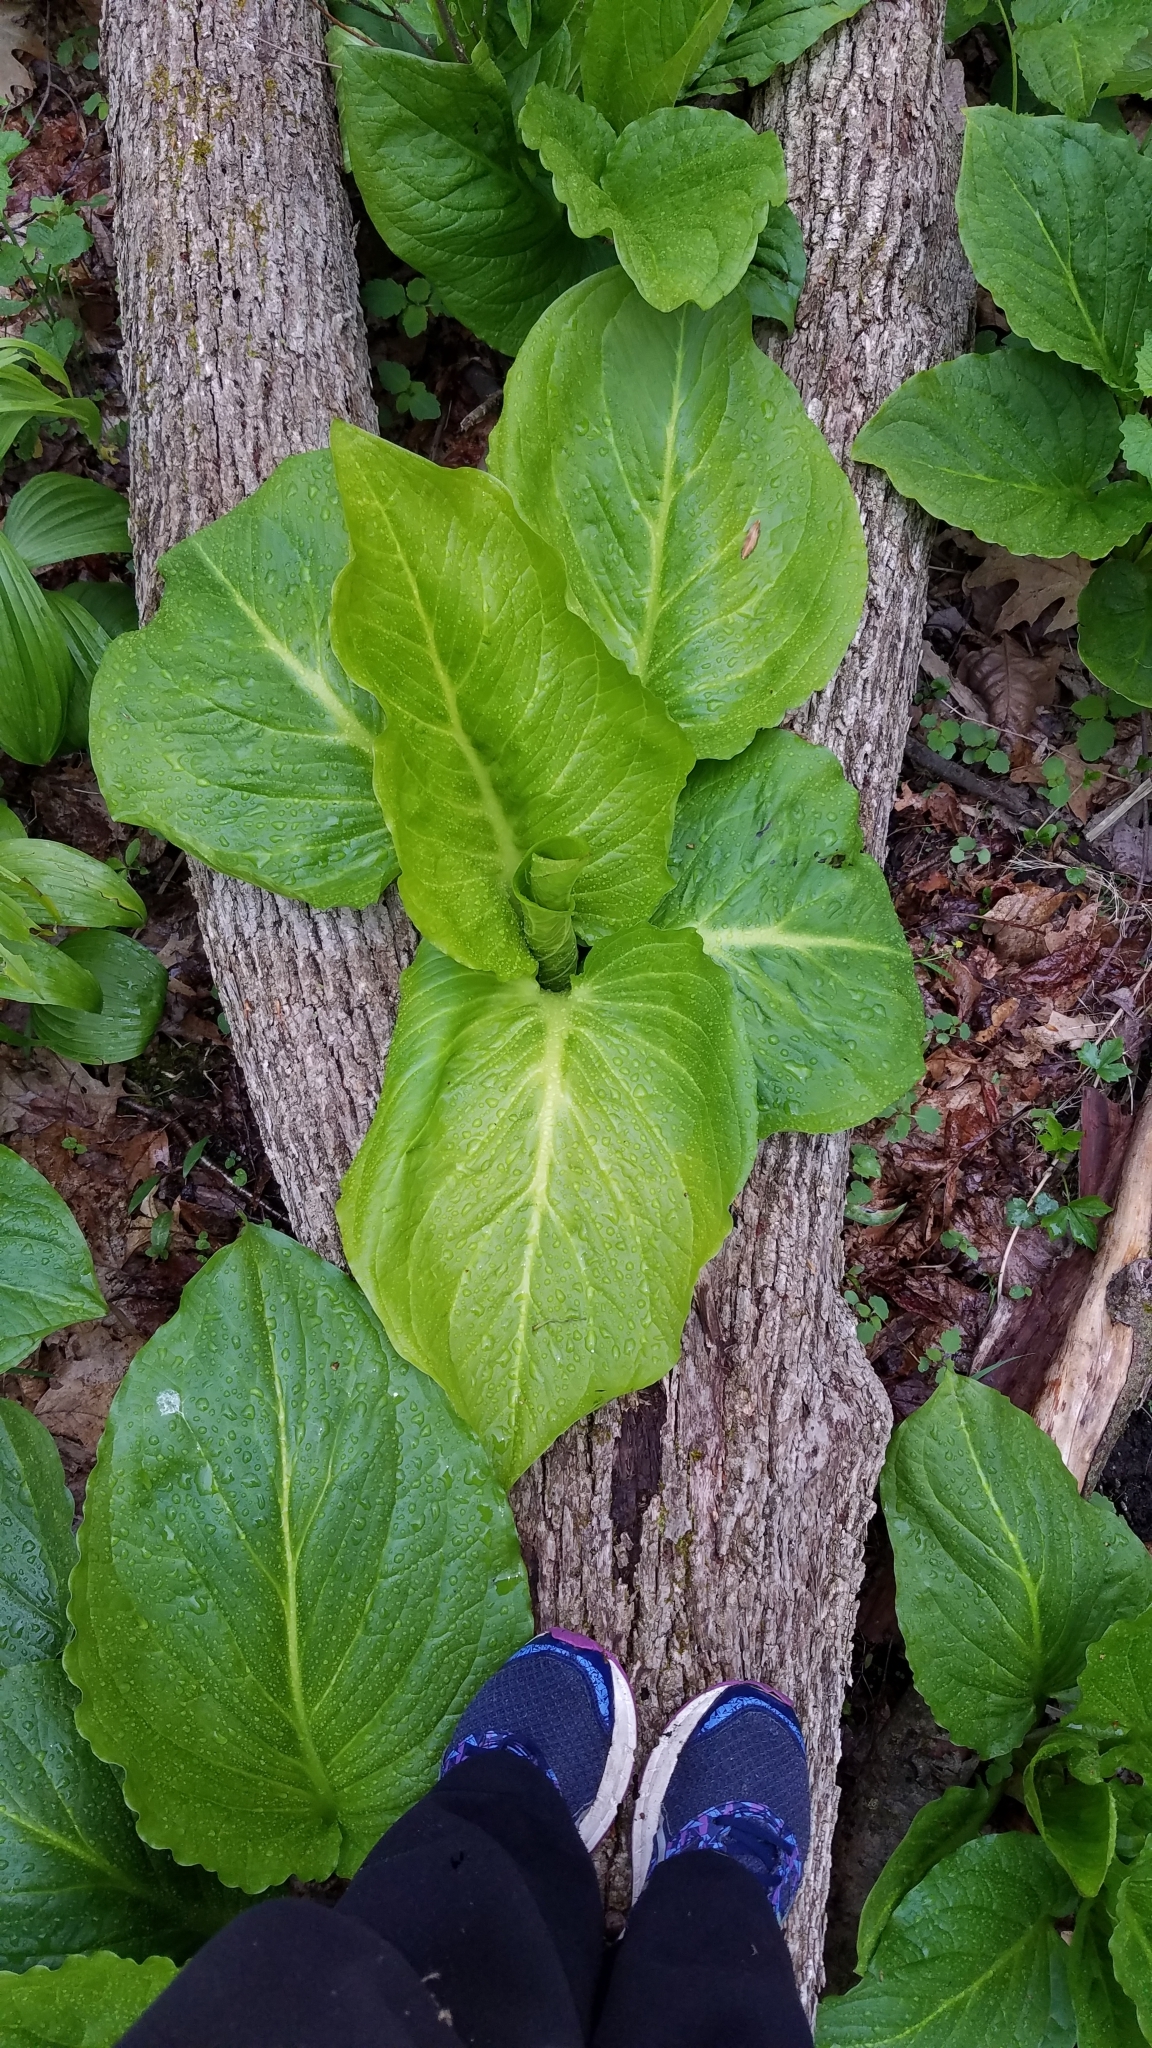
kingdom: Plantae
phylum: Tracheophyta
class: Liliopsida
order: Alismatales
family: Araceae
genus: Symplocarpus
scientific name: Symplocarpus foetidus
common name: Eastern skunk cabbage
